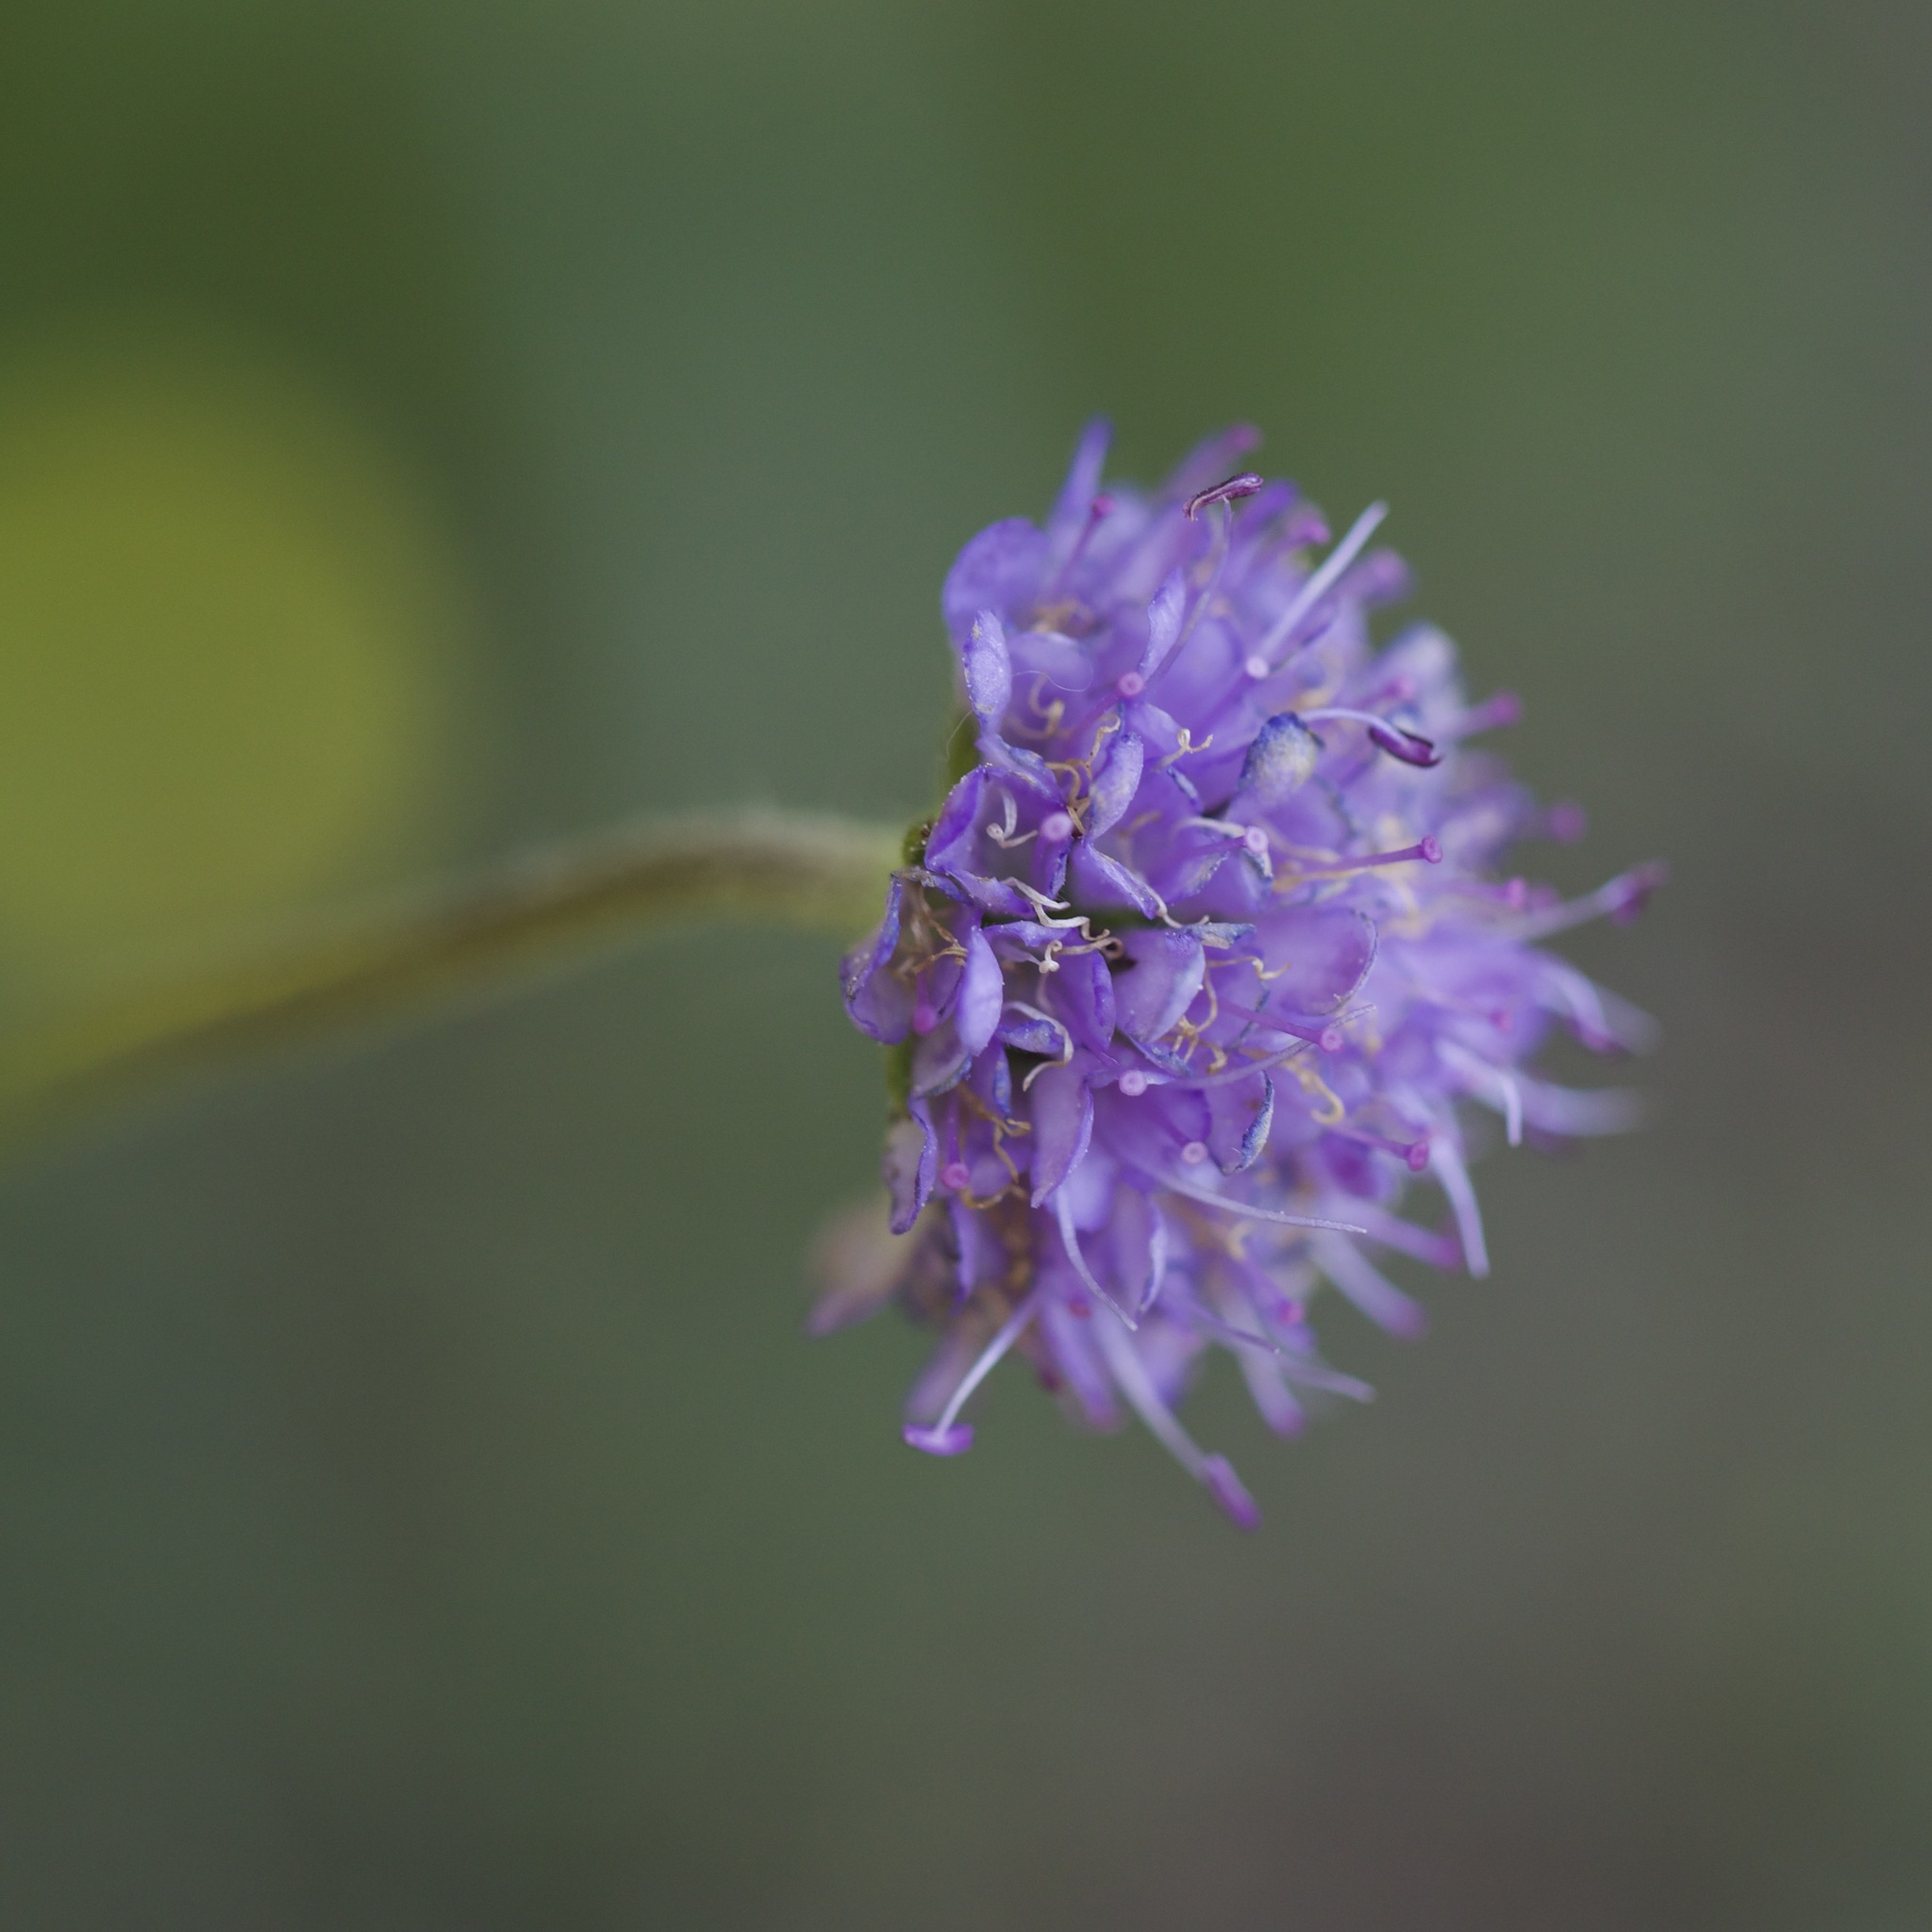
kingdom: Plantae
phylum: Tracheophyta
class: Magnoliopsida
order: Dipsacales
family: Caprifoliaceae
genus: Succisa
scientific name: Succisa pratensis
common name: Devil's-bit
